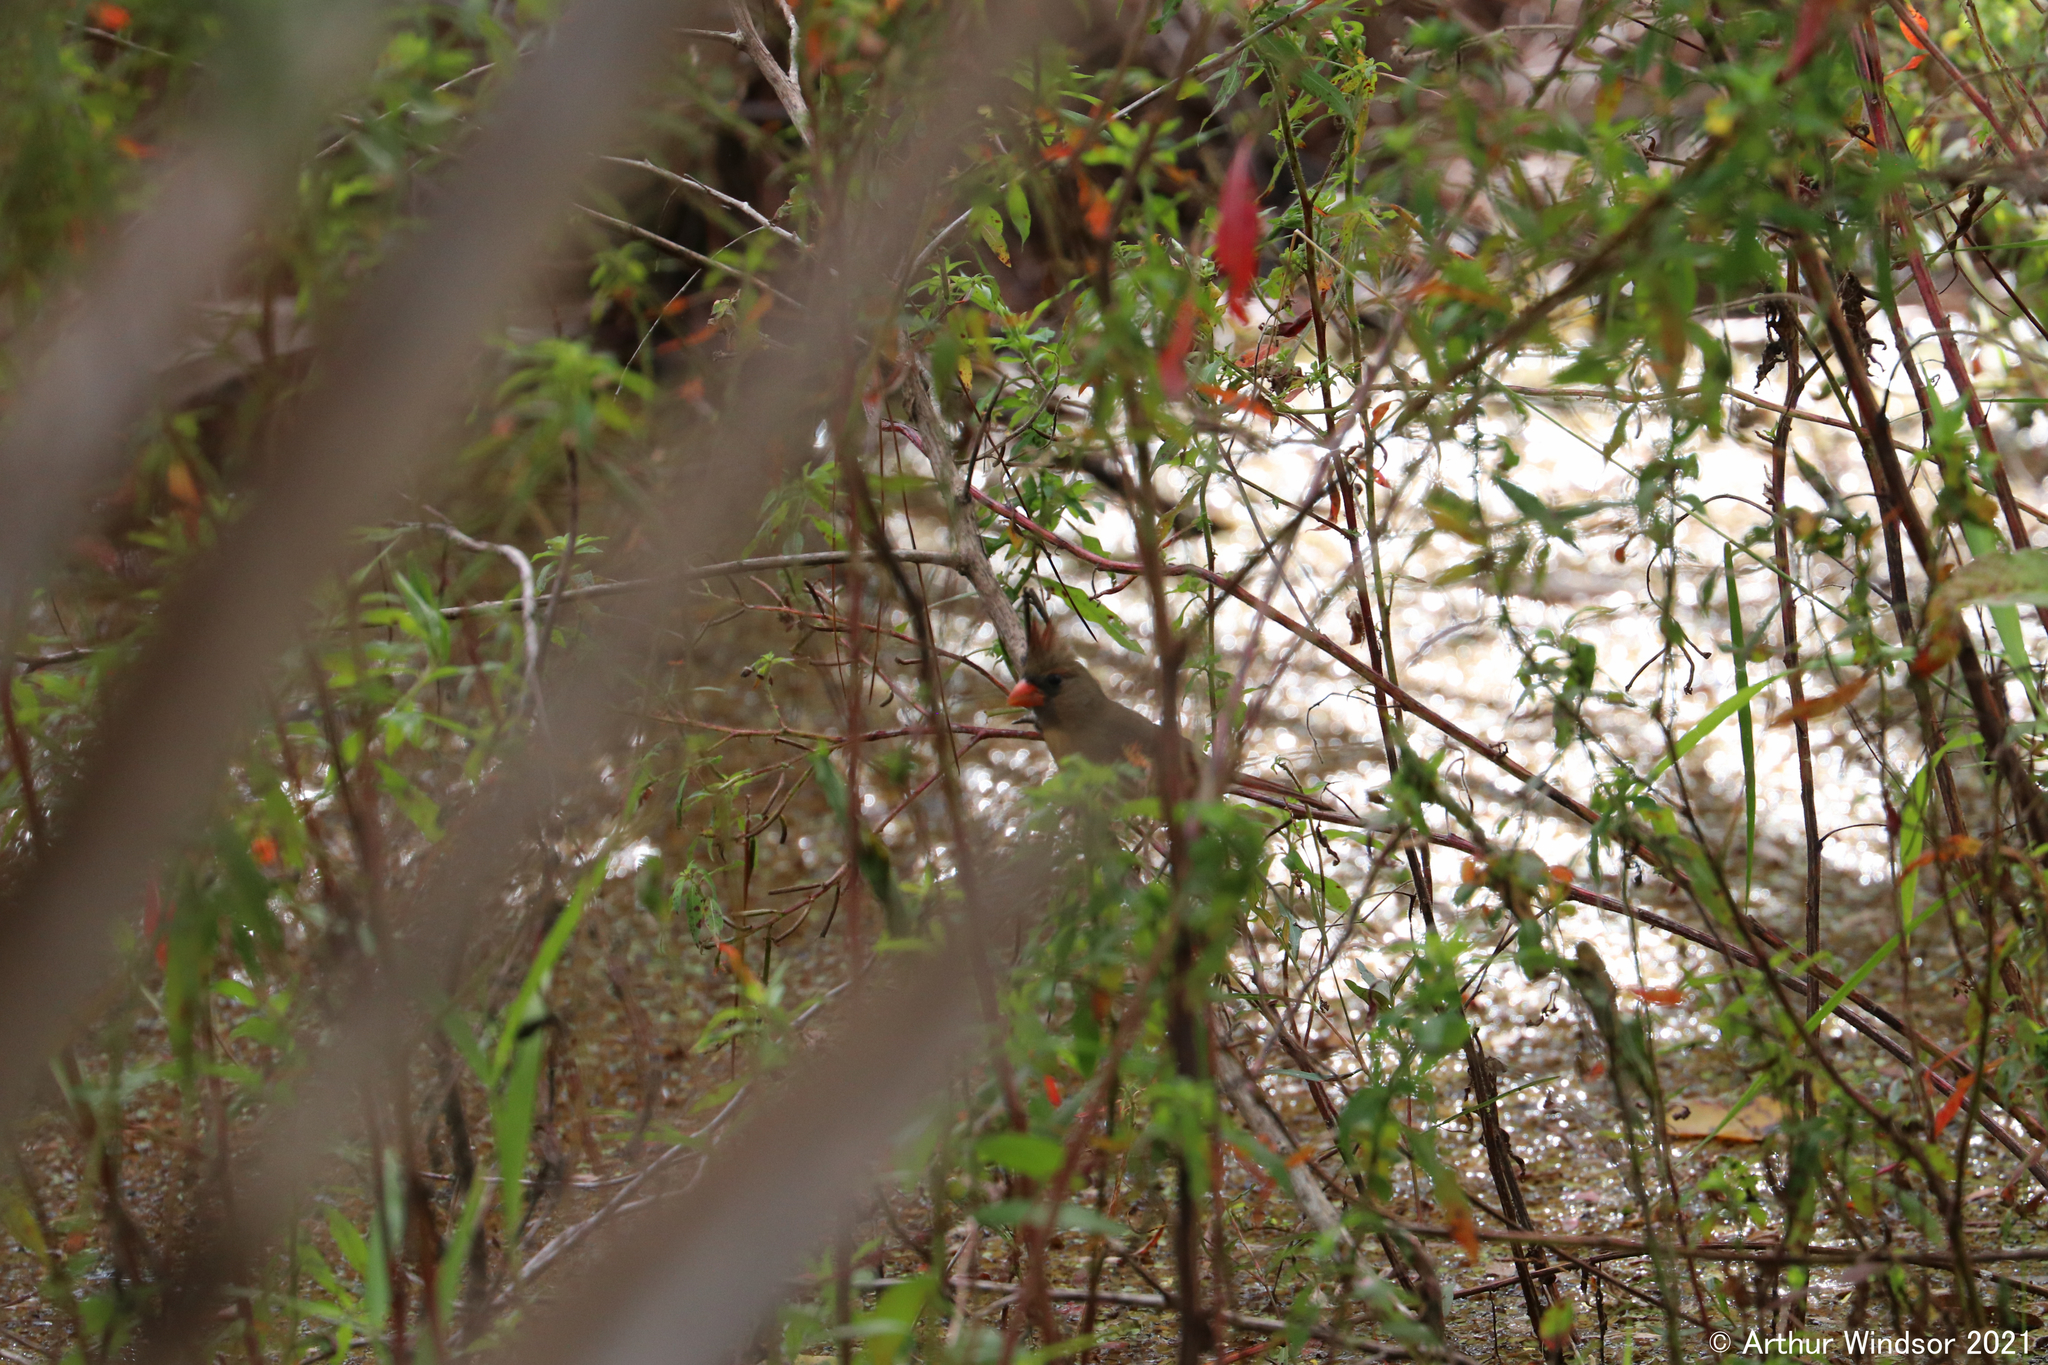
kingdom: Animalia
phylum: Chordata
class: Aves
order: Passeriformes
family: Cardinalidae
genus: Cardinalis
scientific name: Cardinalis cardinalis
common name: Northern cardinal
